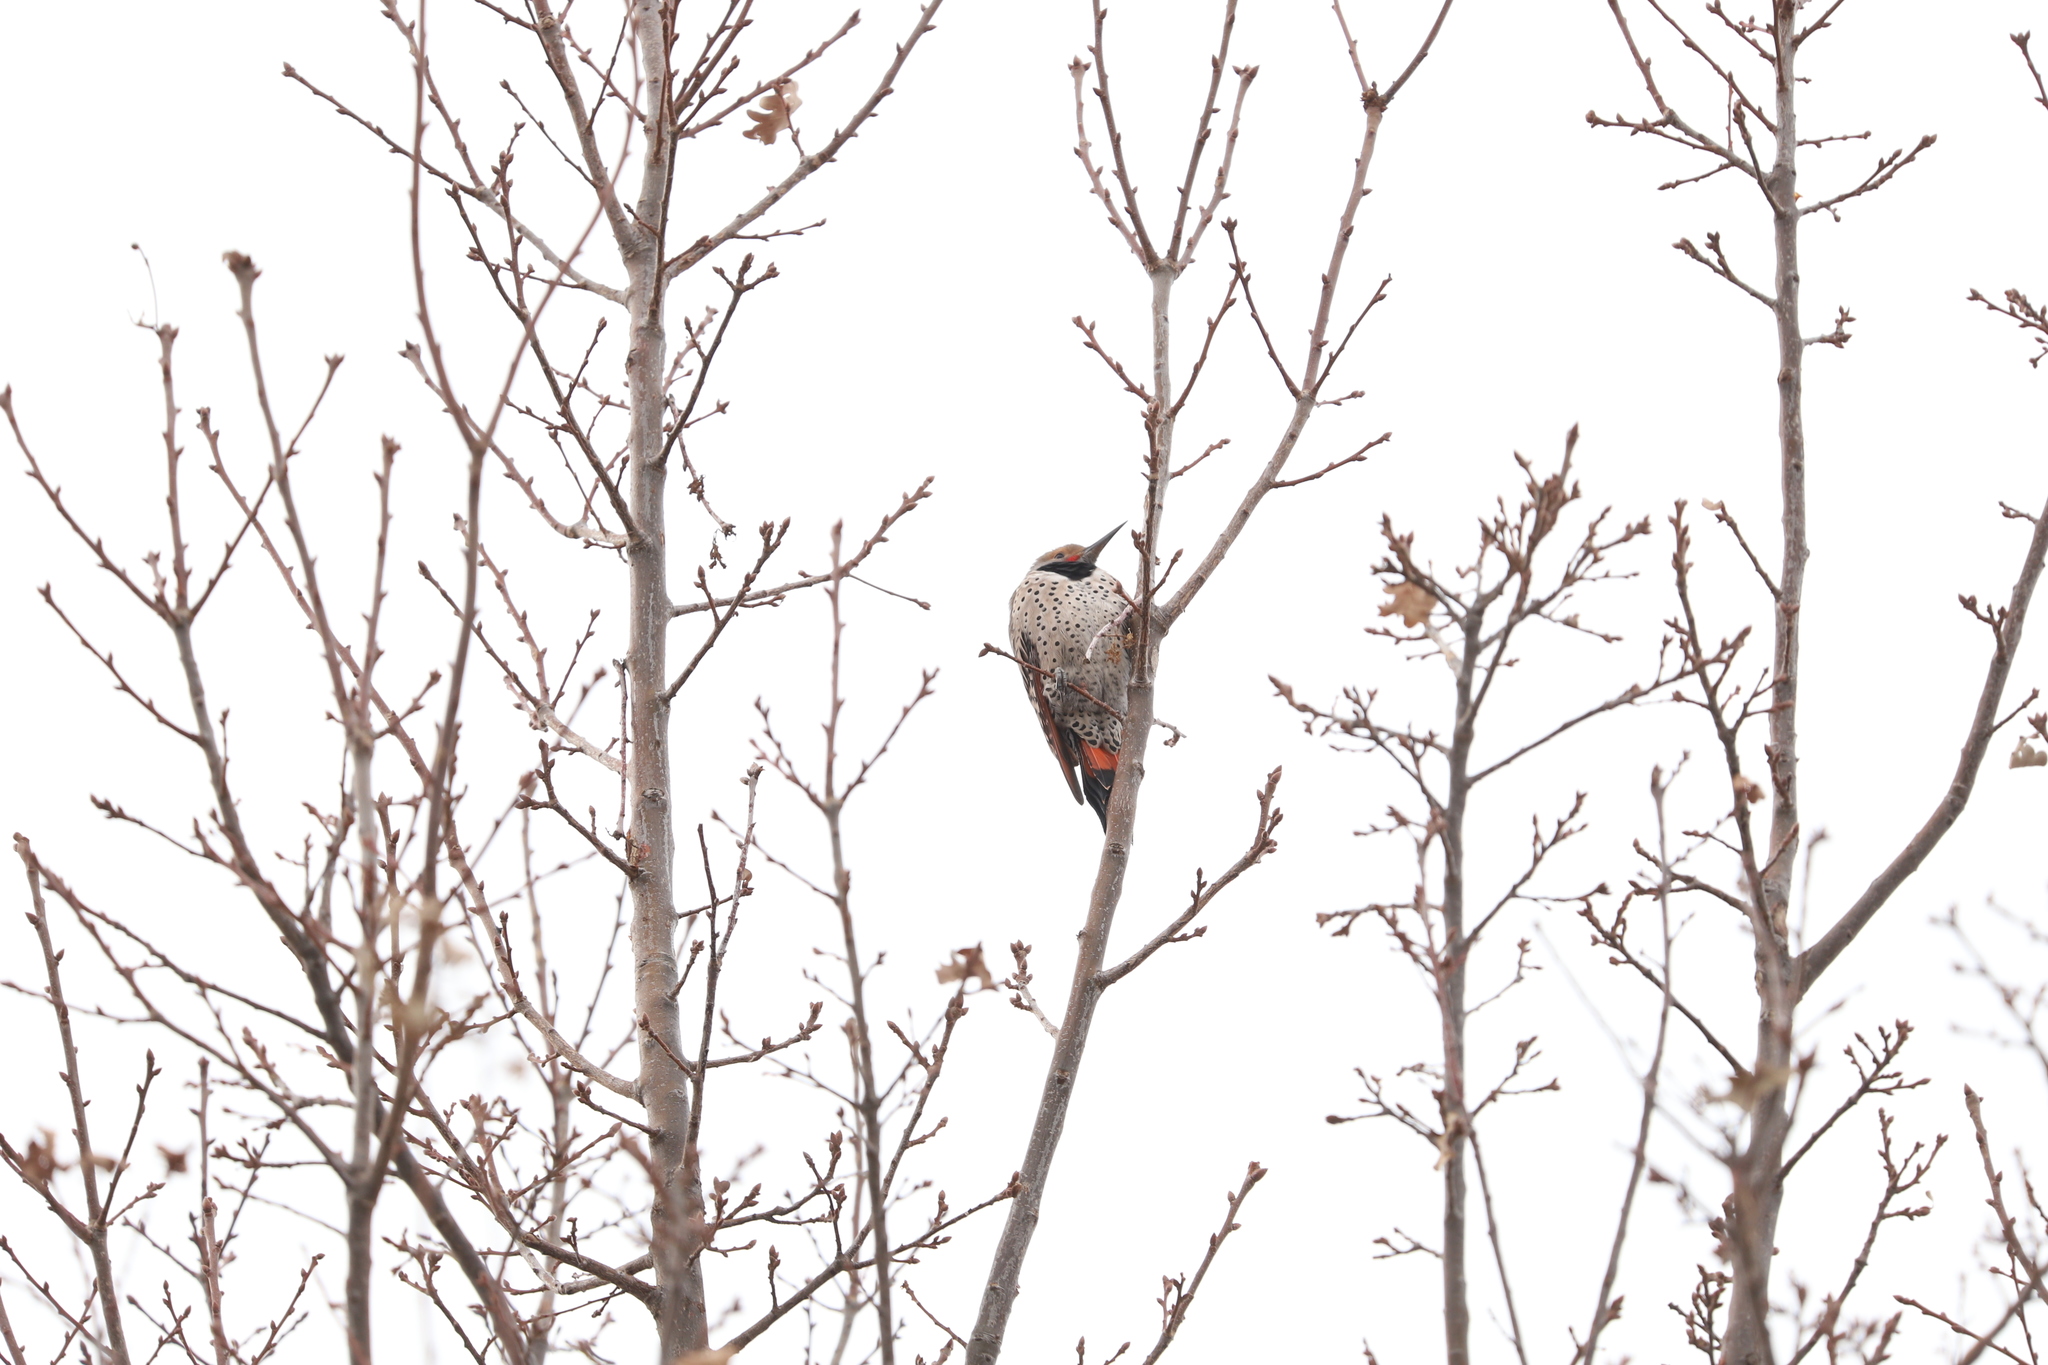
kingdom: Animalia
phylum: Chordata
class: Aves
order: Piciformes
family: Picidae
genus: Colaptes
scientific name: Colaptes auratus
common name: Northern flicker
